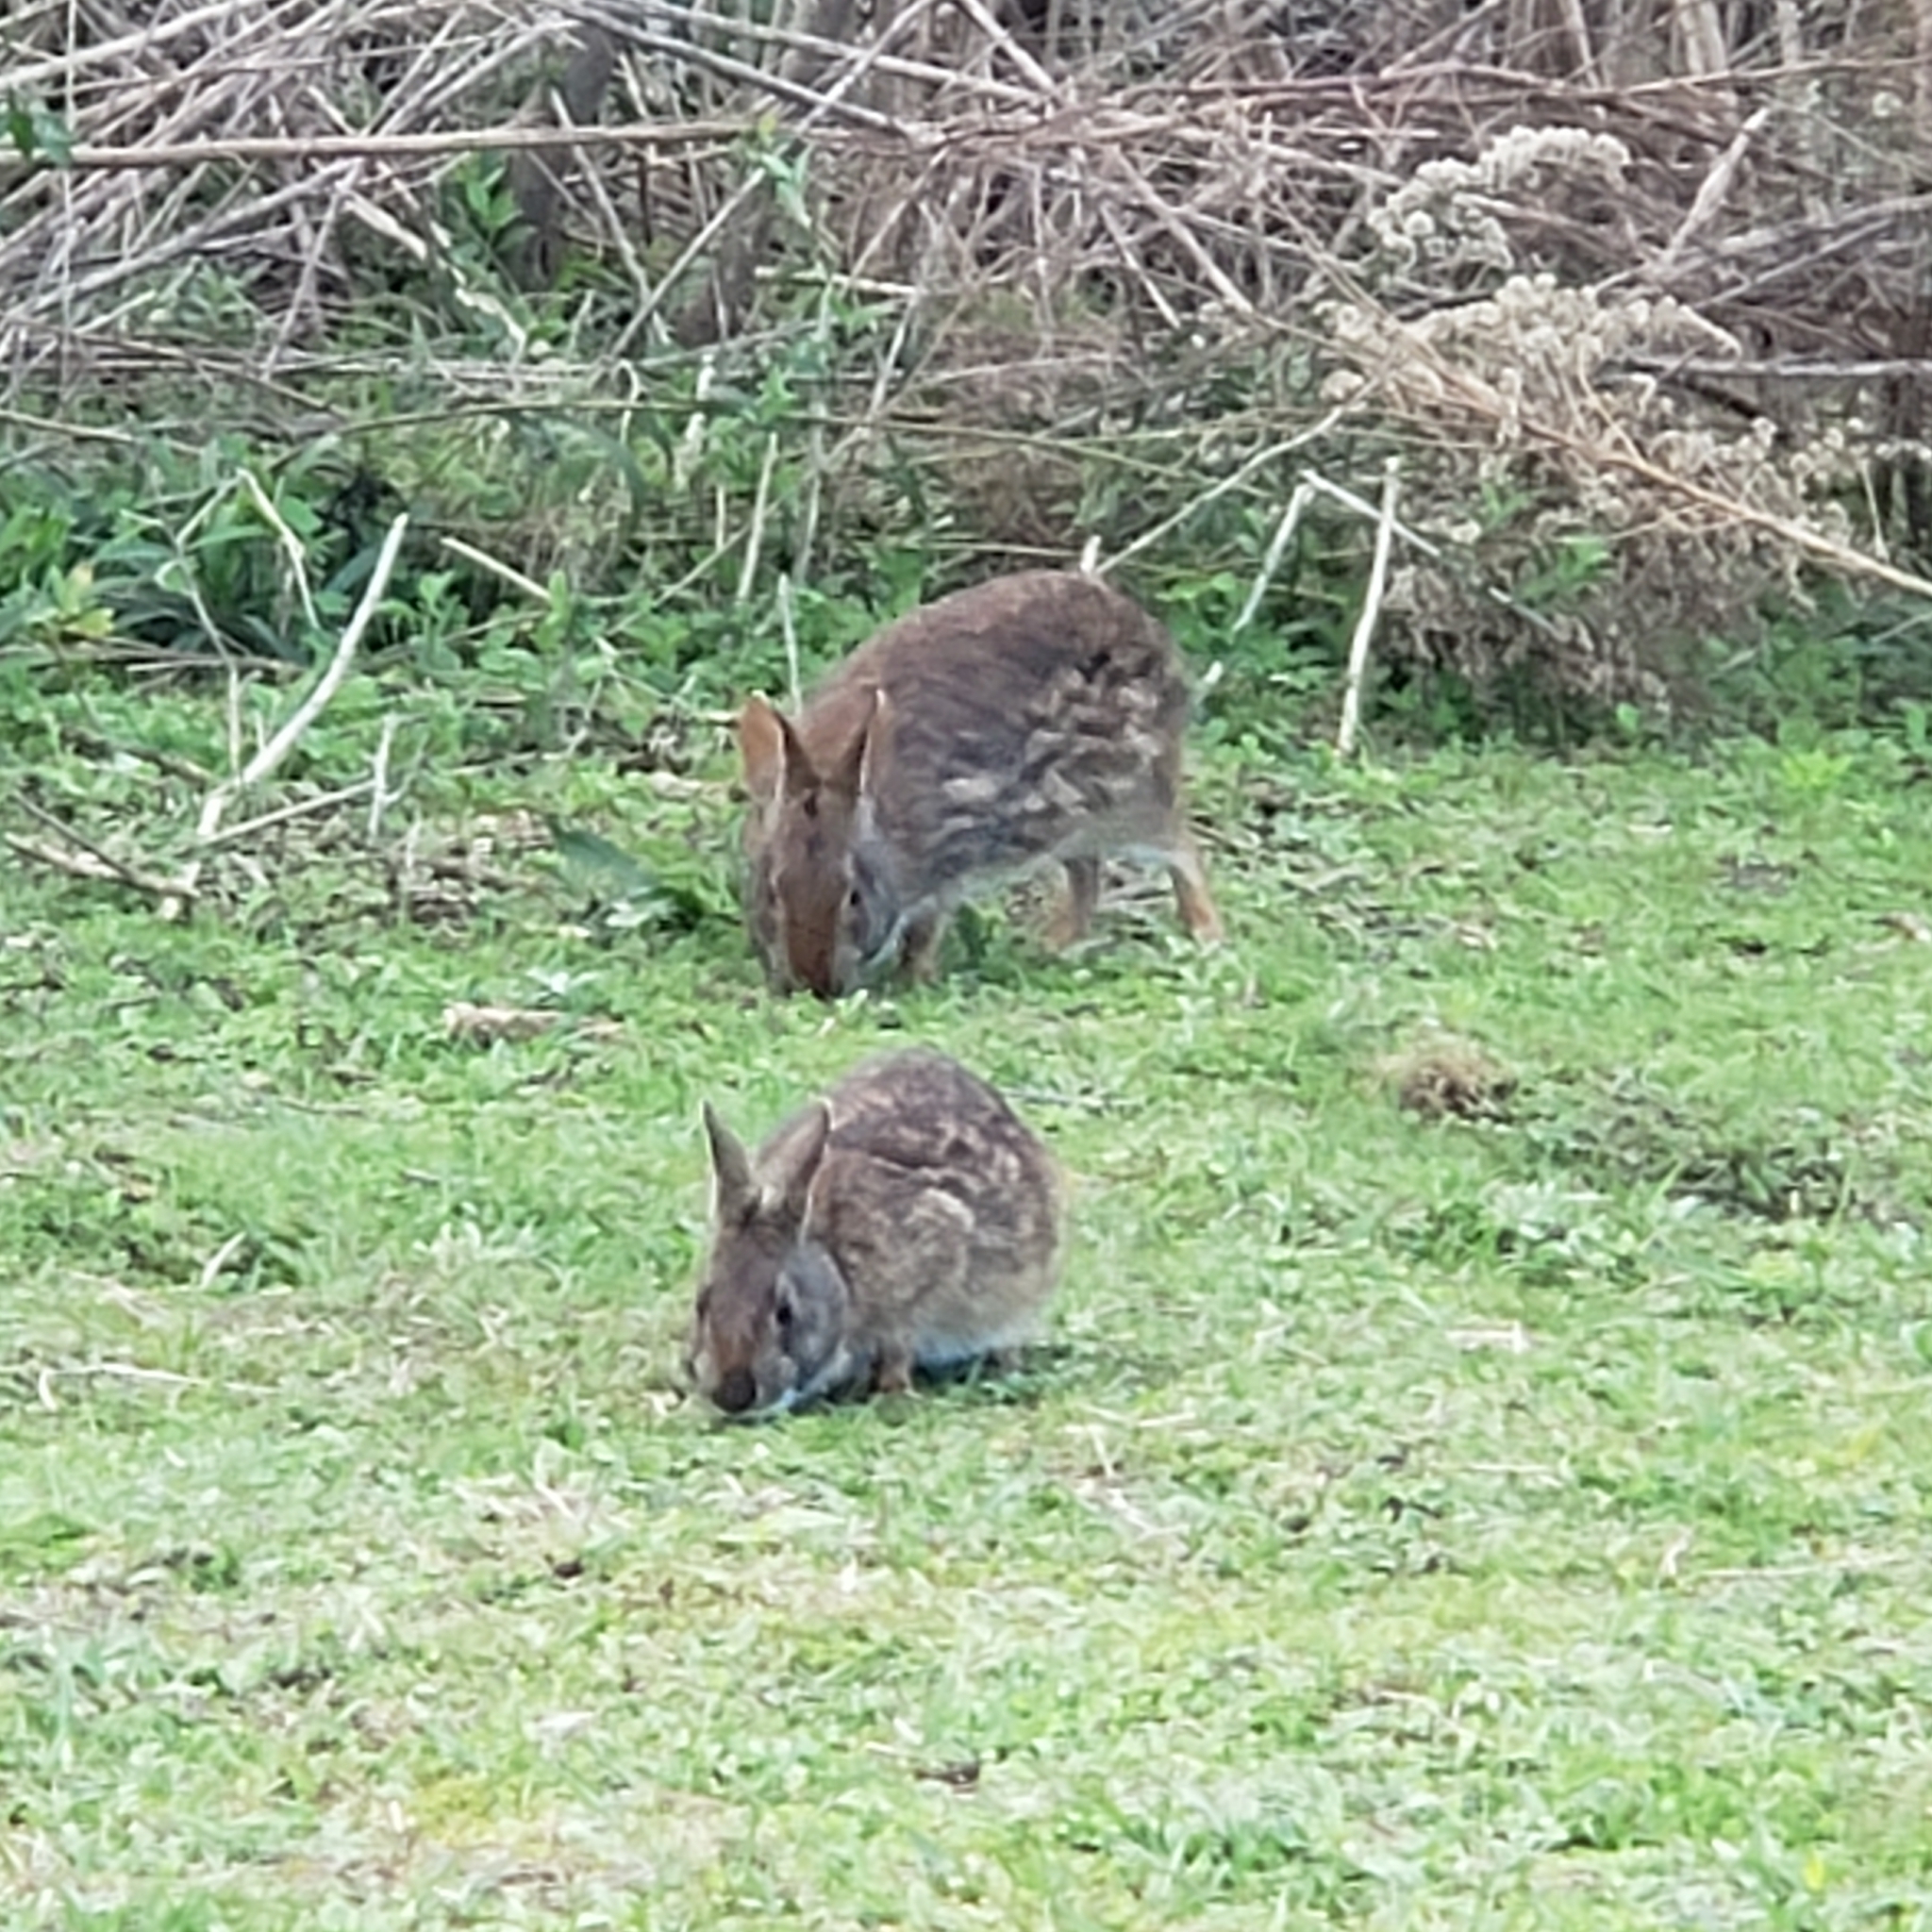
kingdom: Animalia
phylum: Chordata
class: Mammalia
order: Lagomorpha
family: Leporidae
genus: Sylvilagus
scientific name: Sylvilagus palustris
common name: Marsh rabbit
